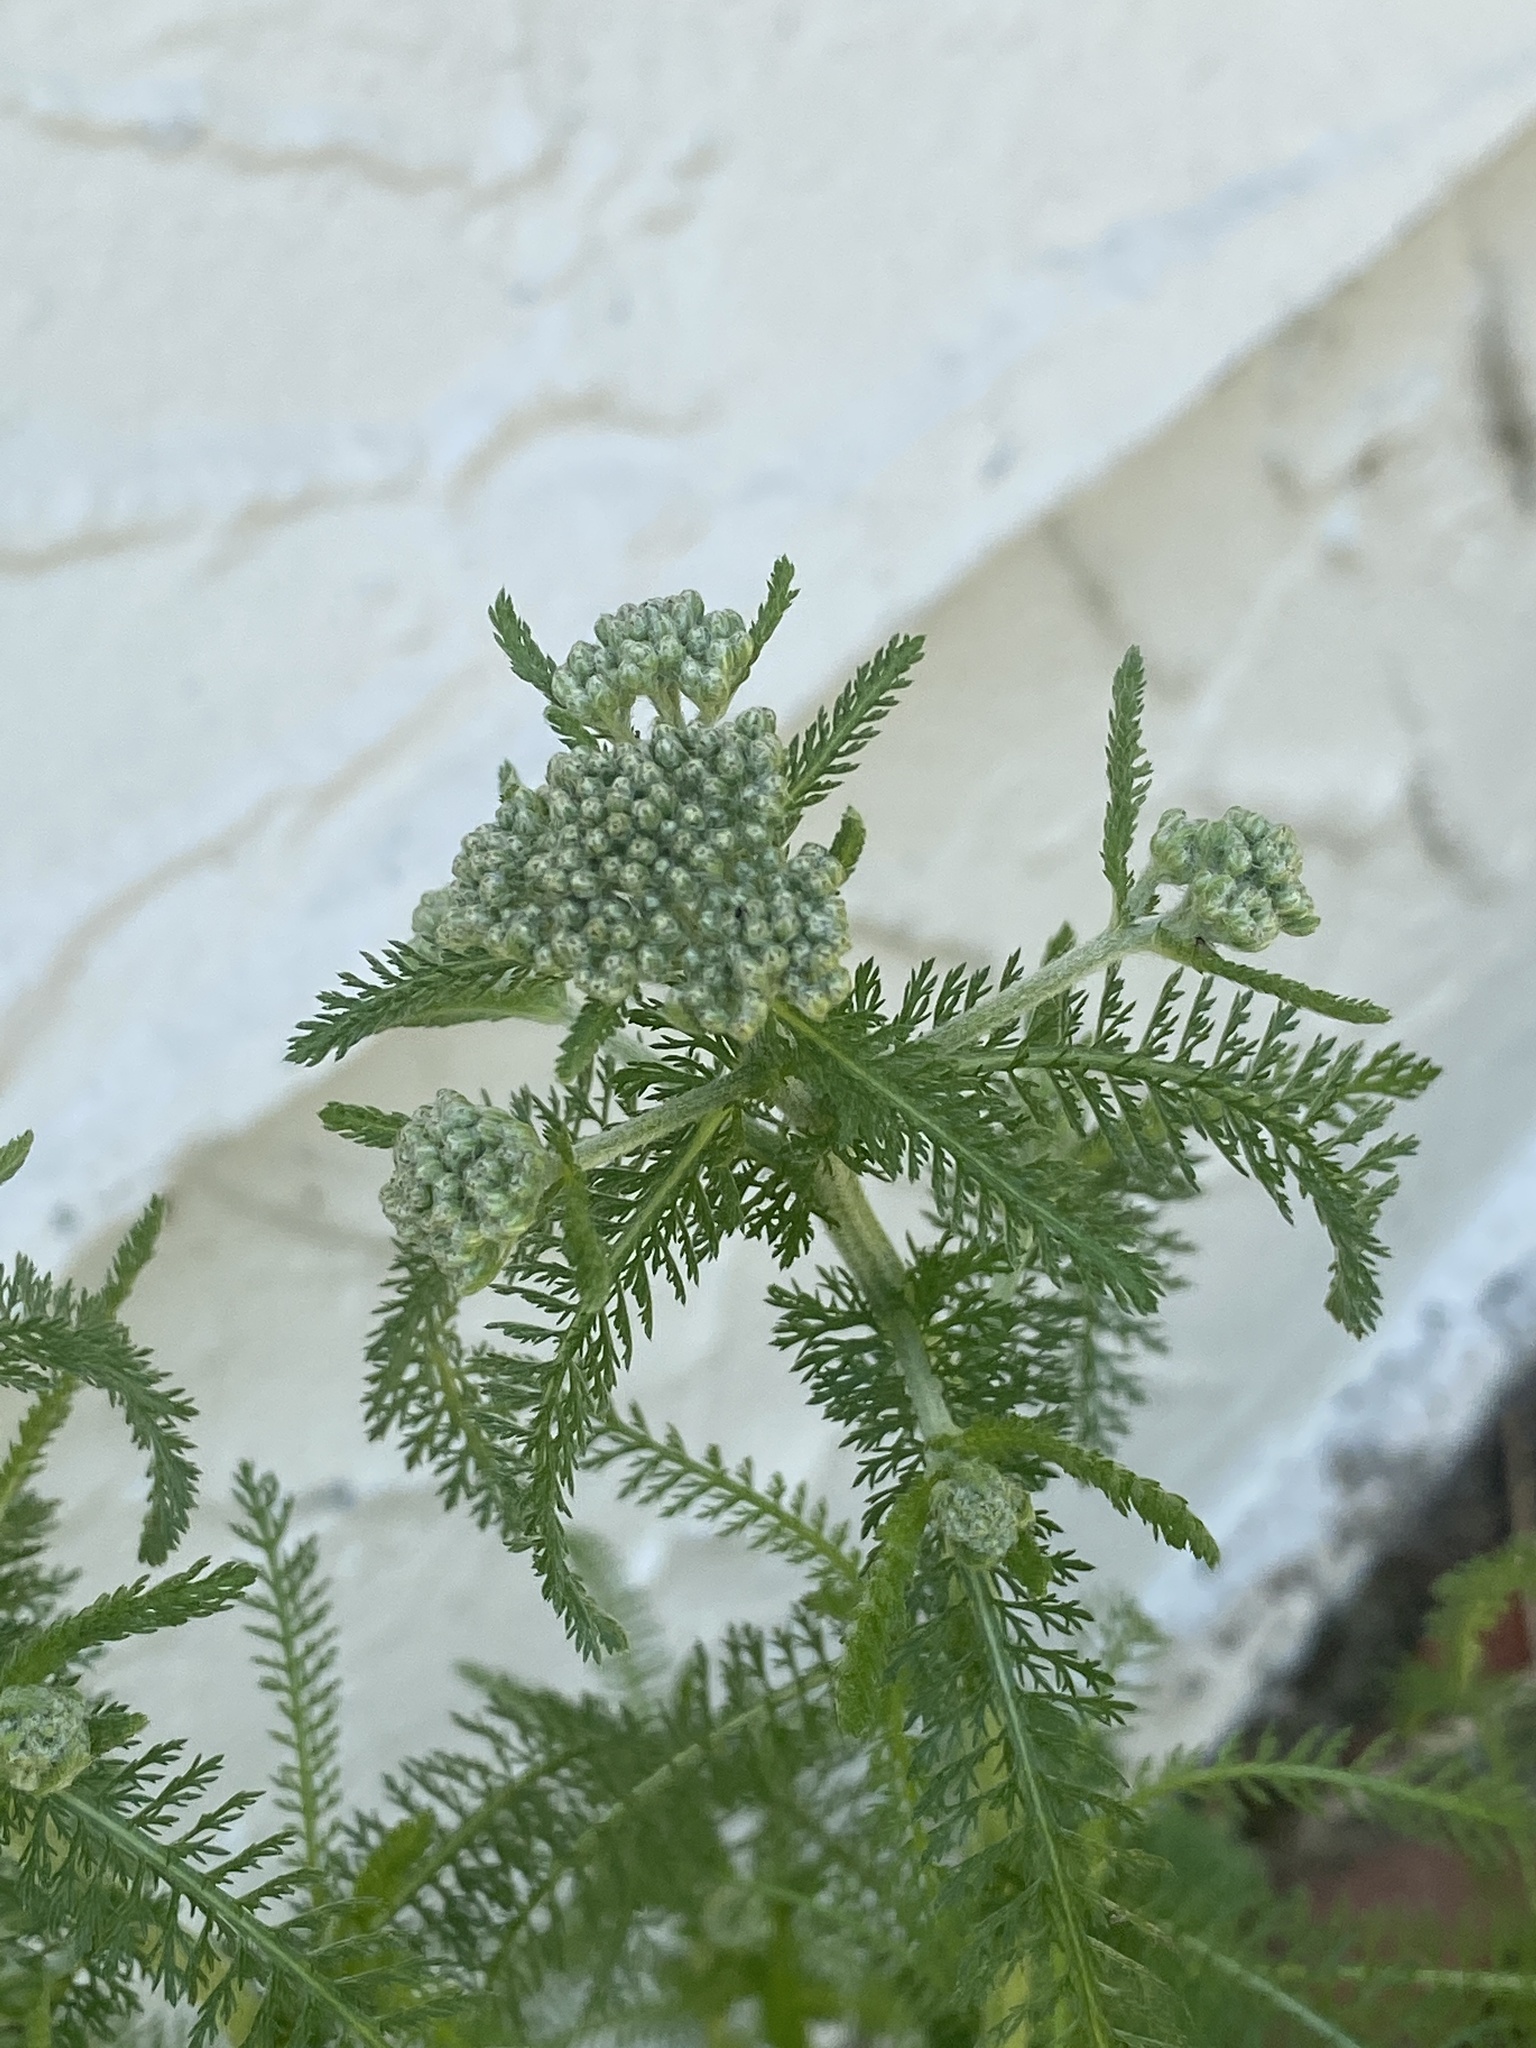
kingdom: Plantae
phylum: Tracheophyta
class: Magnoliopsida
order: Asterales
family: Asteraceae
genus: Achillea
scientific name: Achillea millefolium
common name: Yarrow
